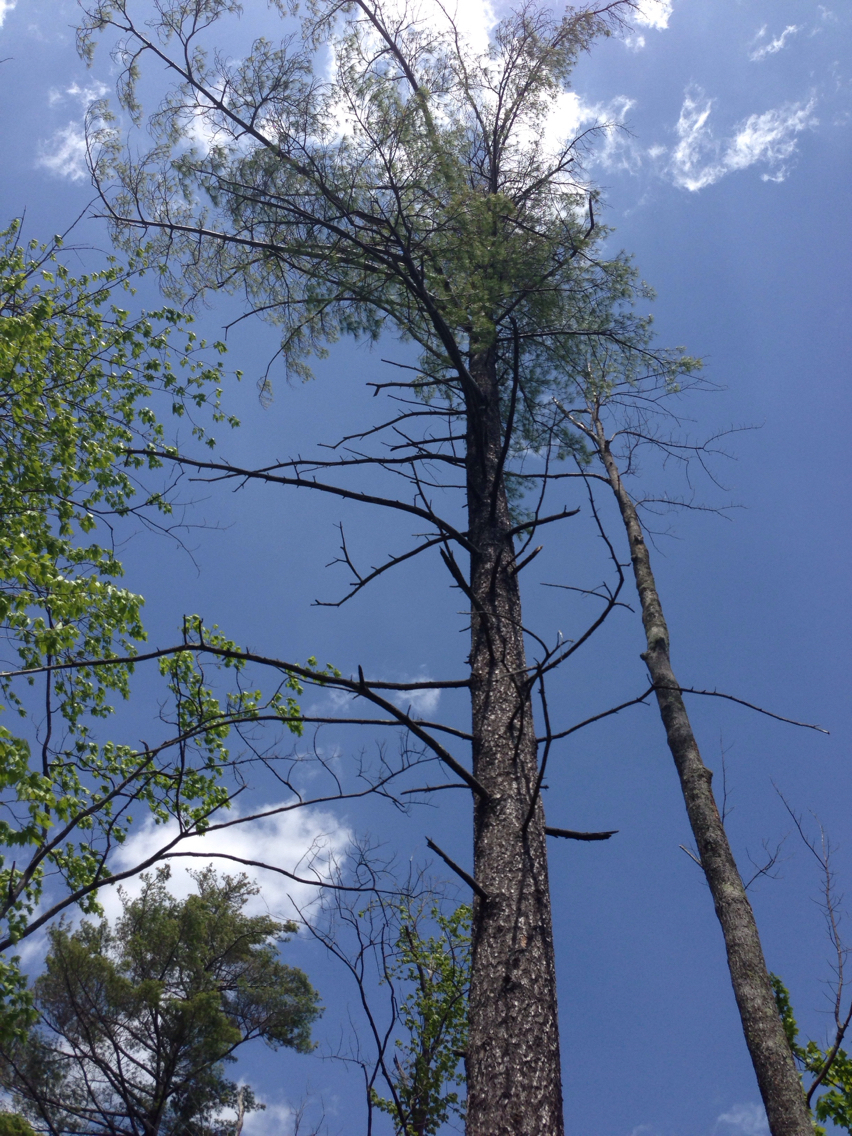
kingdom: Plantae
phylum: Tracheophyta
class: Pinopsida
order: Pinales
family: Pinaceae
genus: Pinus
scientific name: Pinus strobus
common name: Weymouth pine
